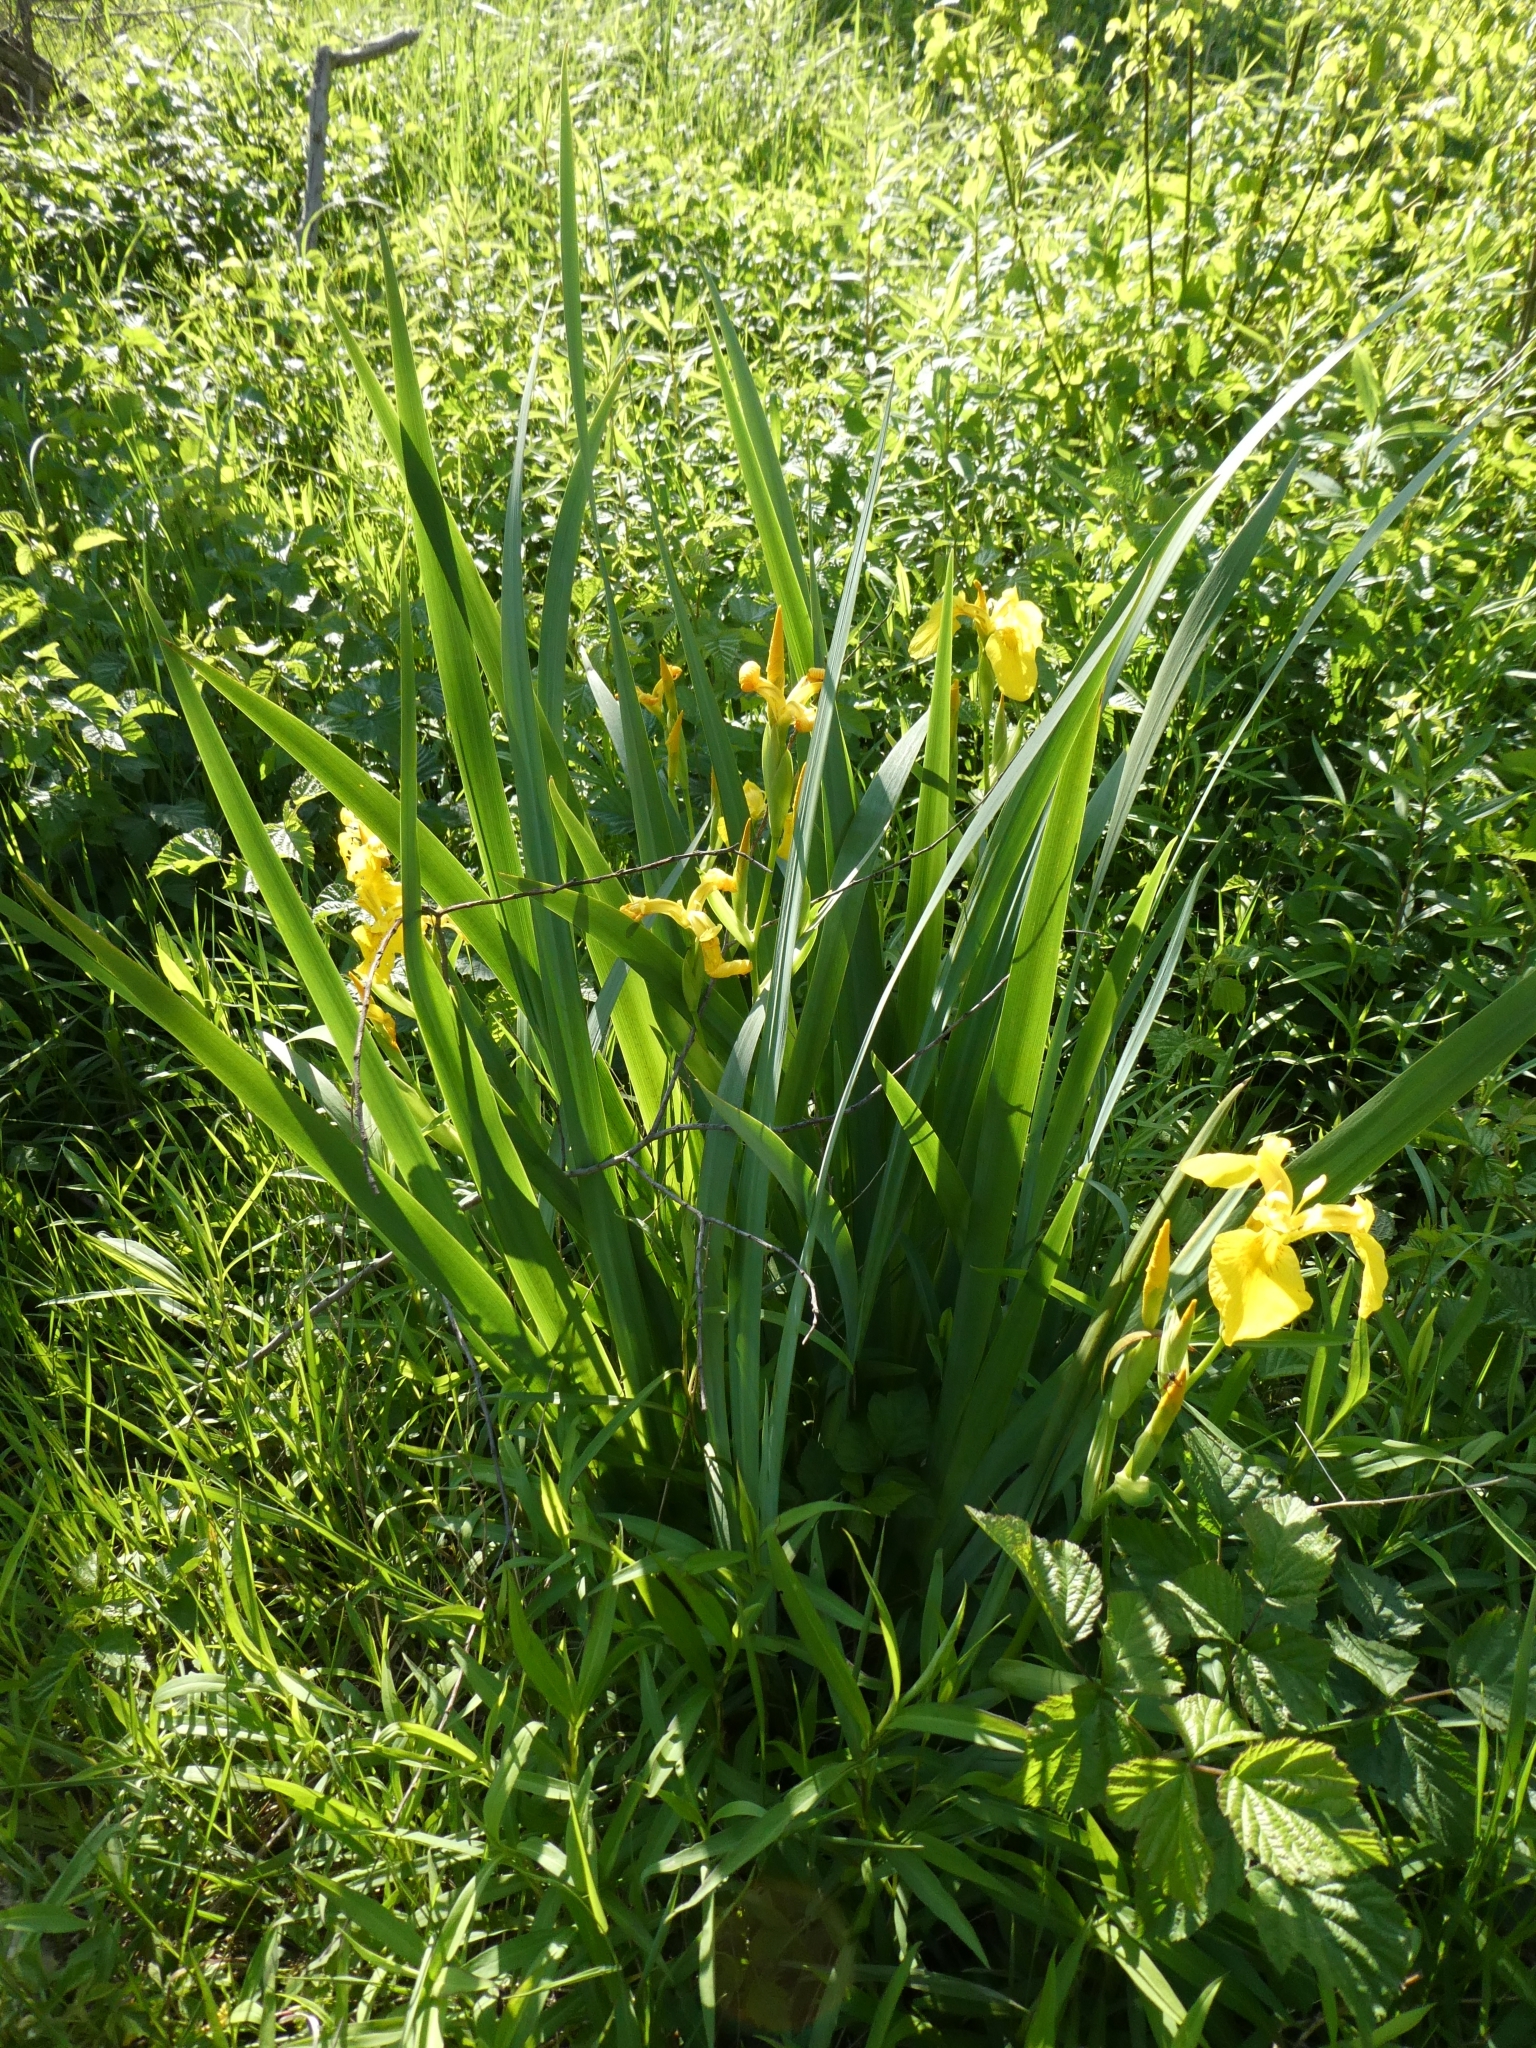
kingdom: Plantae
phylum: Tracheophyta
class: Liliopsida
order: Asparagales
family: Iridaceae
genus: Iris
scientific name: Iris pseudacorus
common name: Yellow flag
